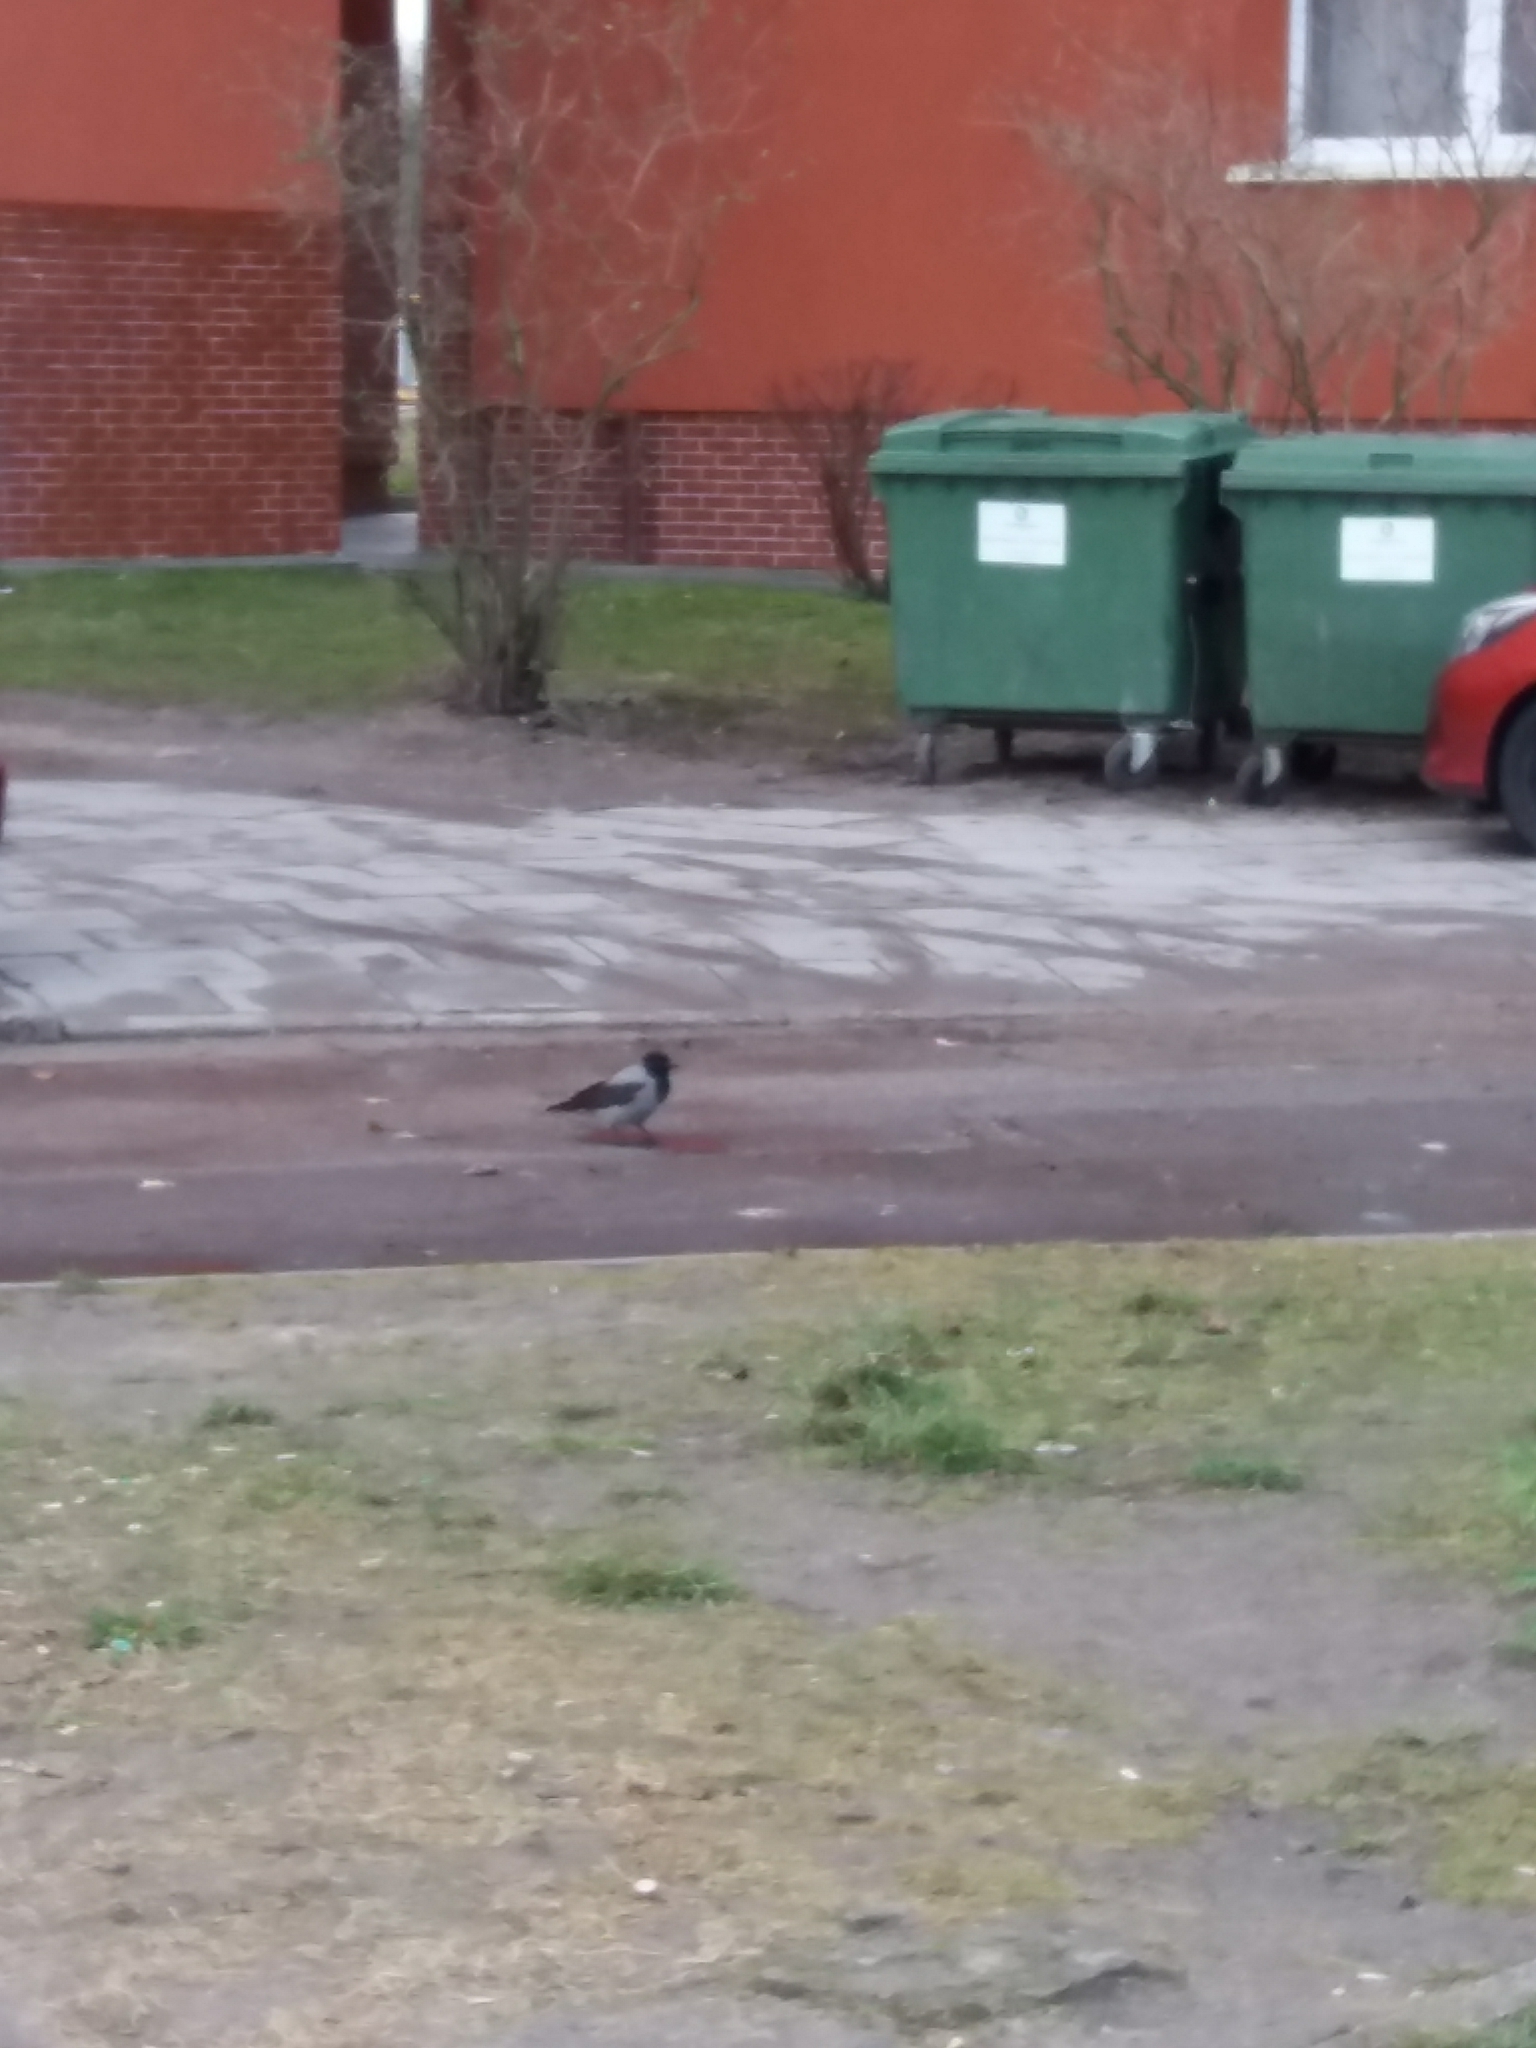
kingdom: Animalia
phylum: Chordata
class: Aves
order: Passeriformes
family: Corvidae
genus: Corvus
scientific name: Corvus cornix
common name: Hooded crow
